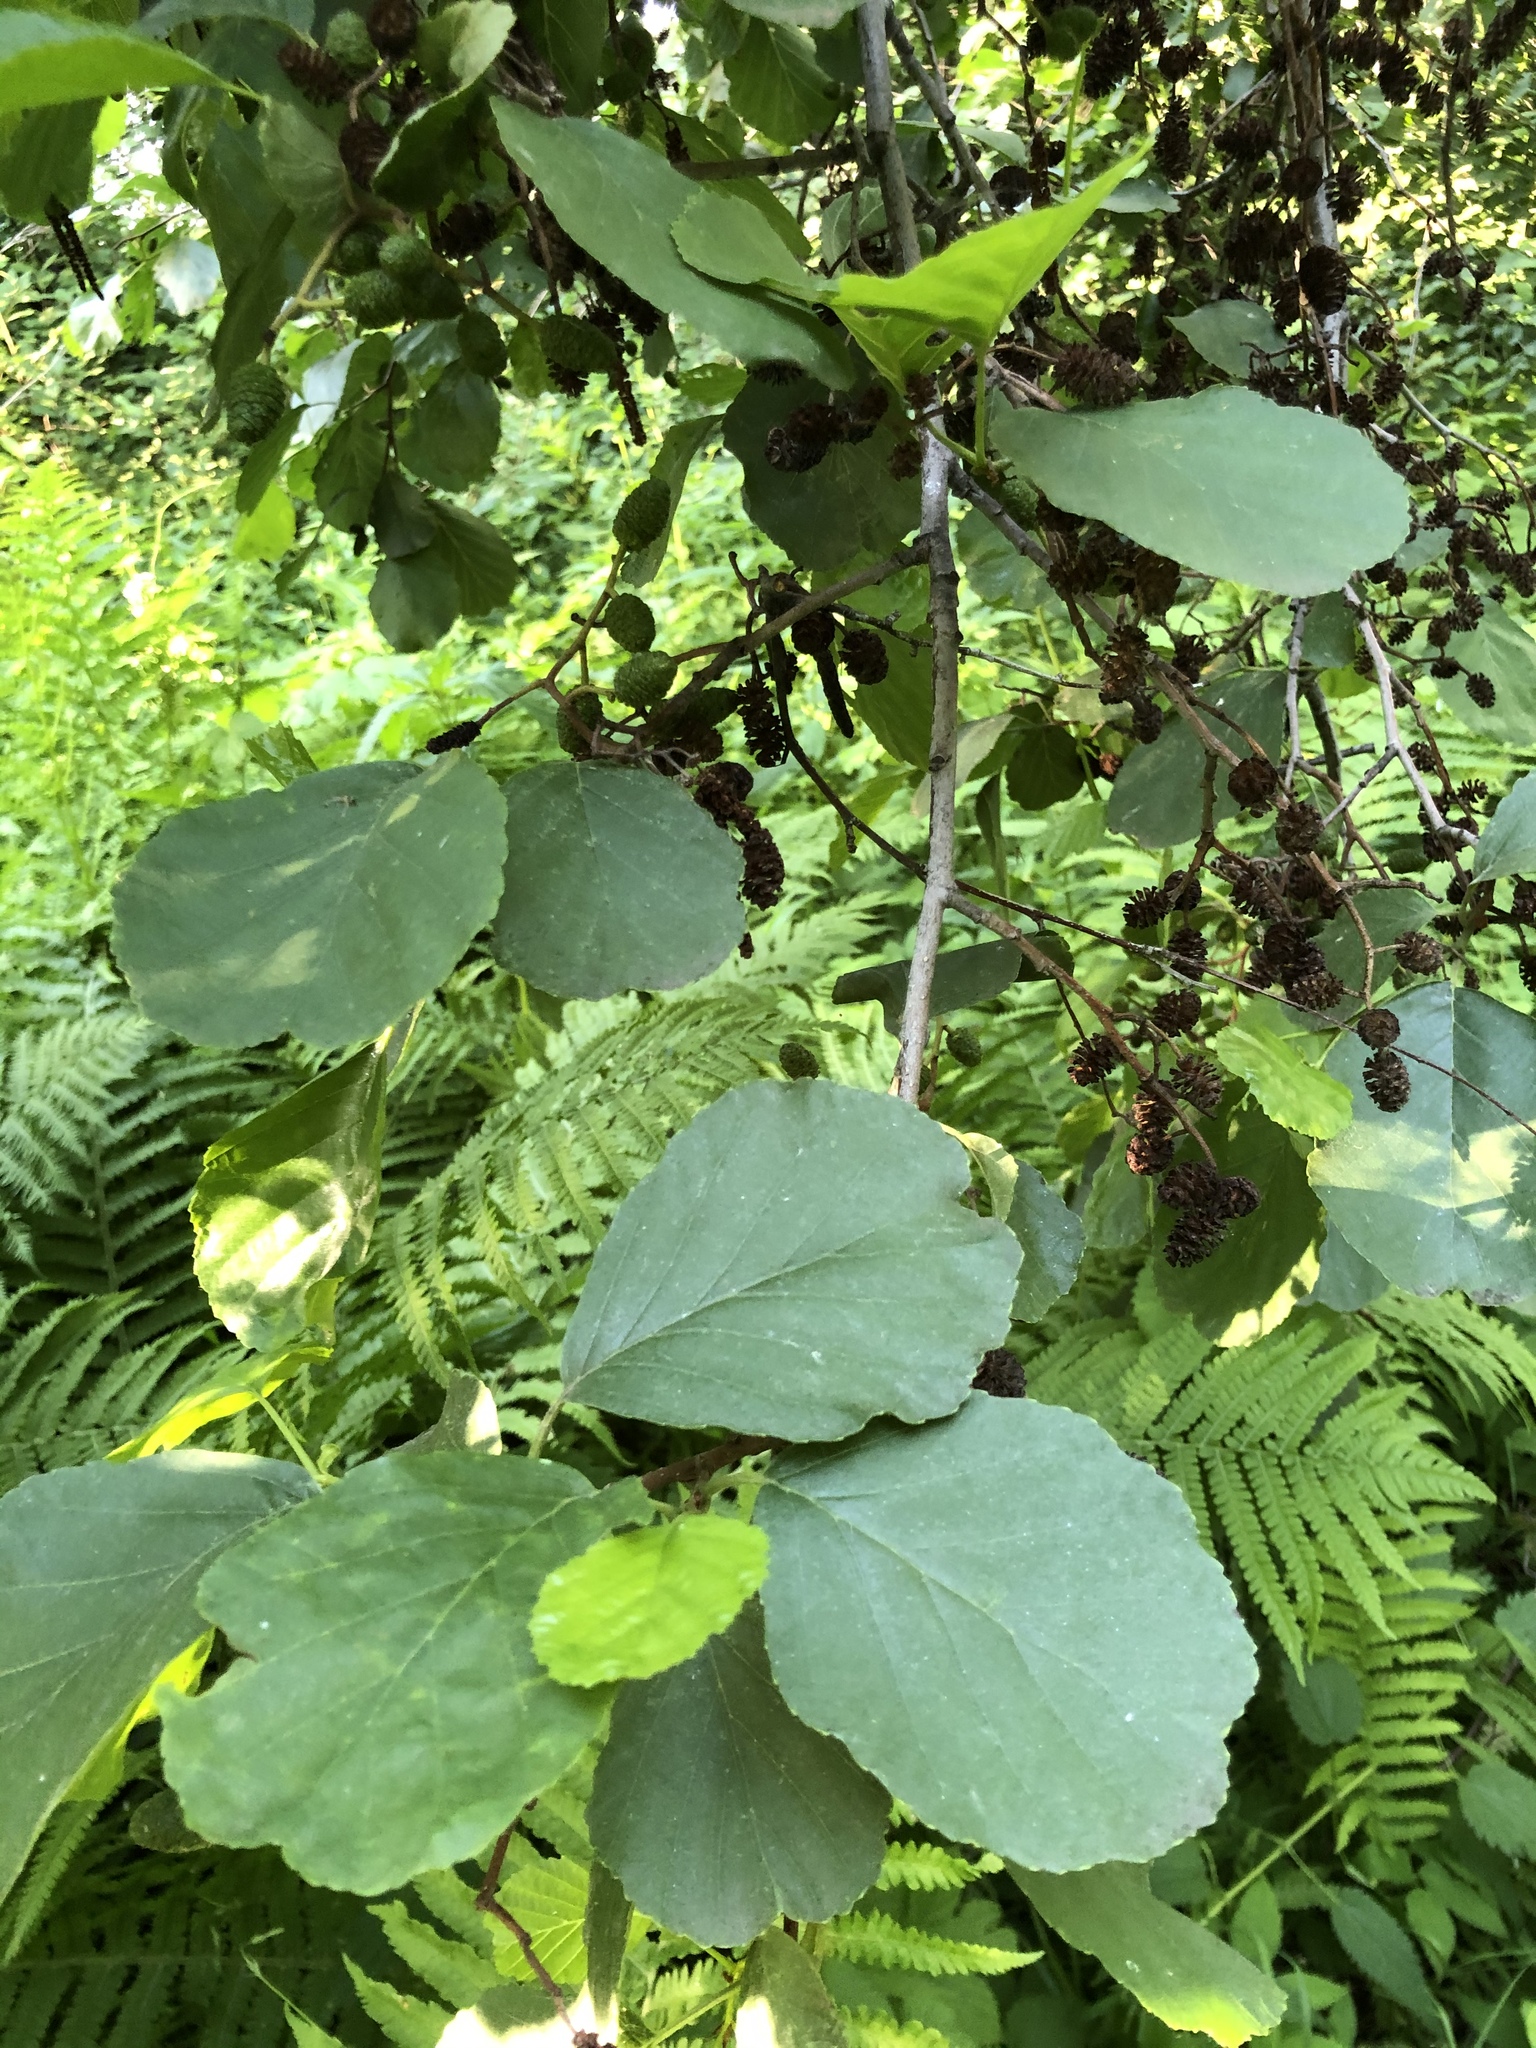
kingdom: Plantae
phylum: Tracheophyta
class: Magnoliopsida
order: Fagales
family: Betulaceae
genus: Alnus
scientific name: Alnus glutinosa
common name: Black alder
